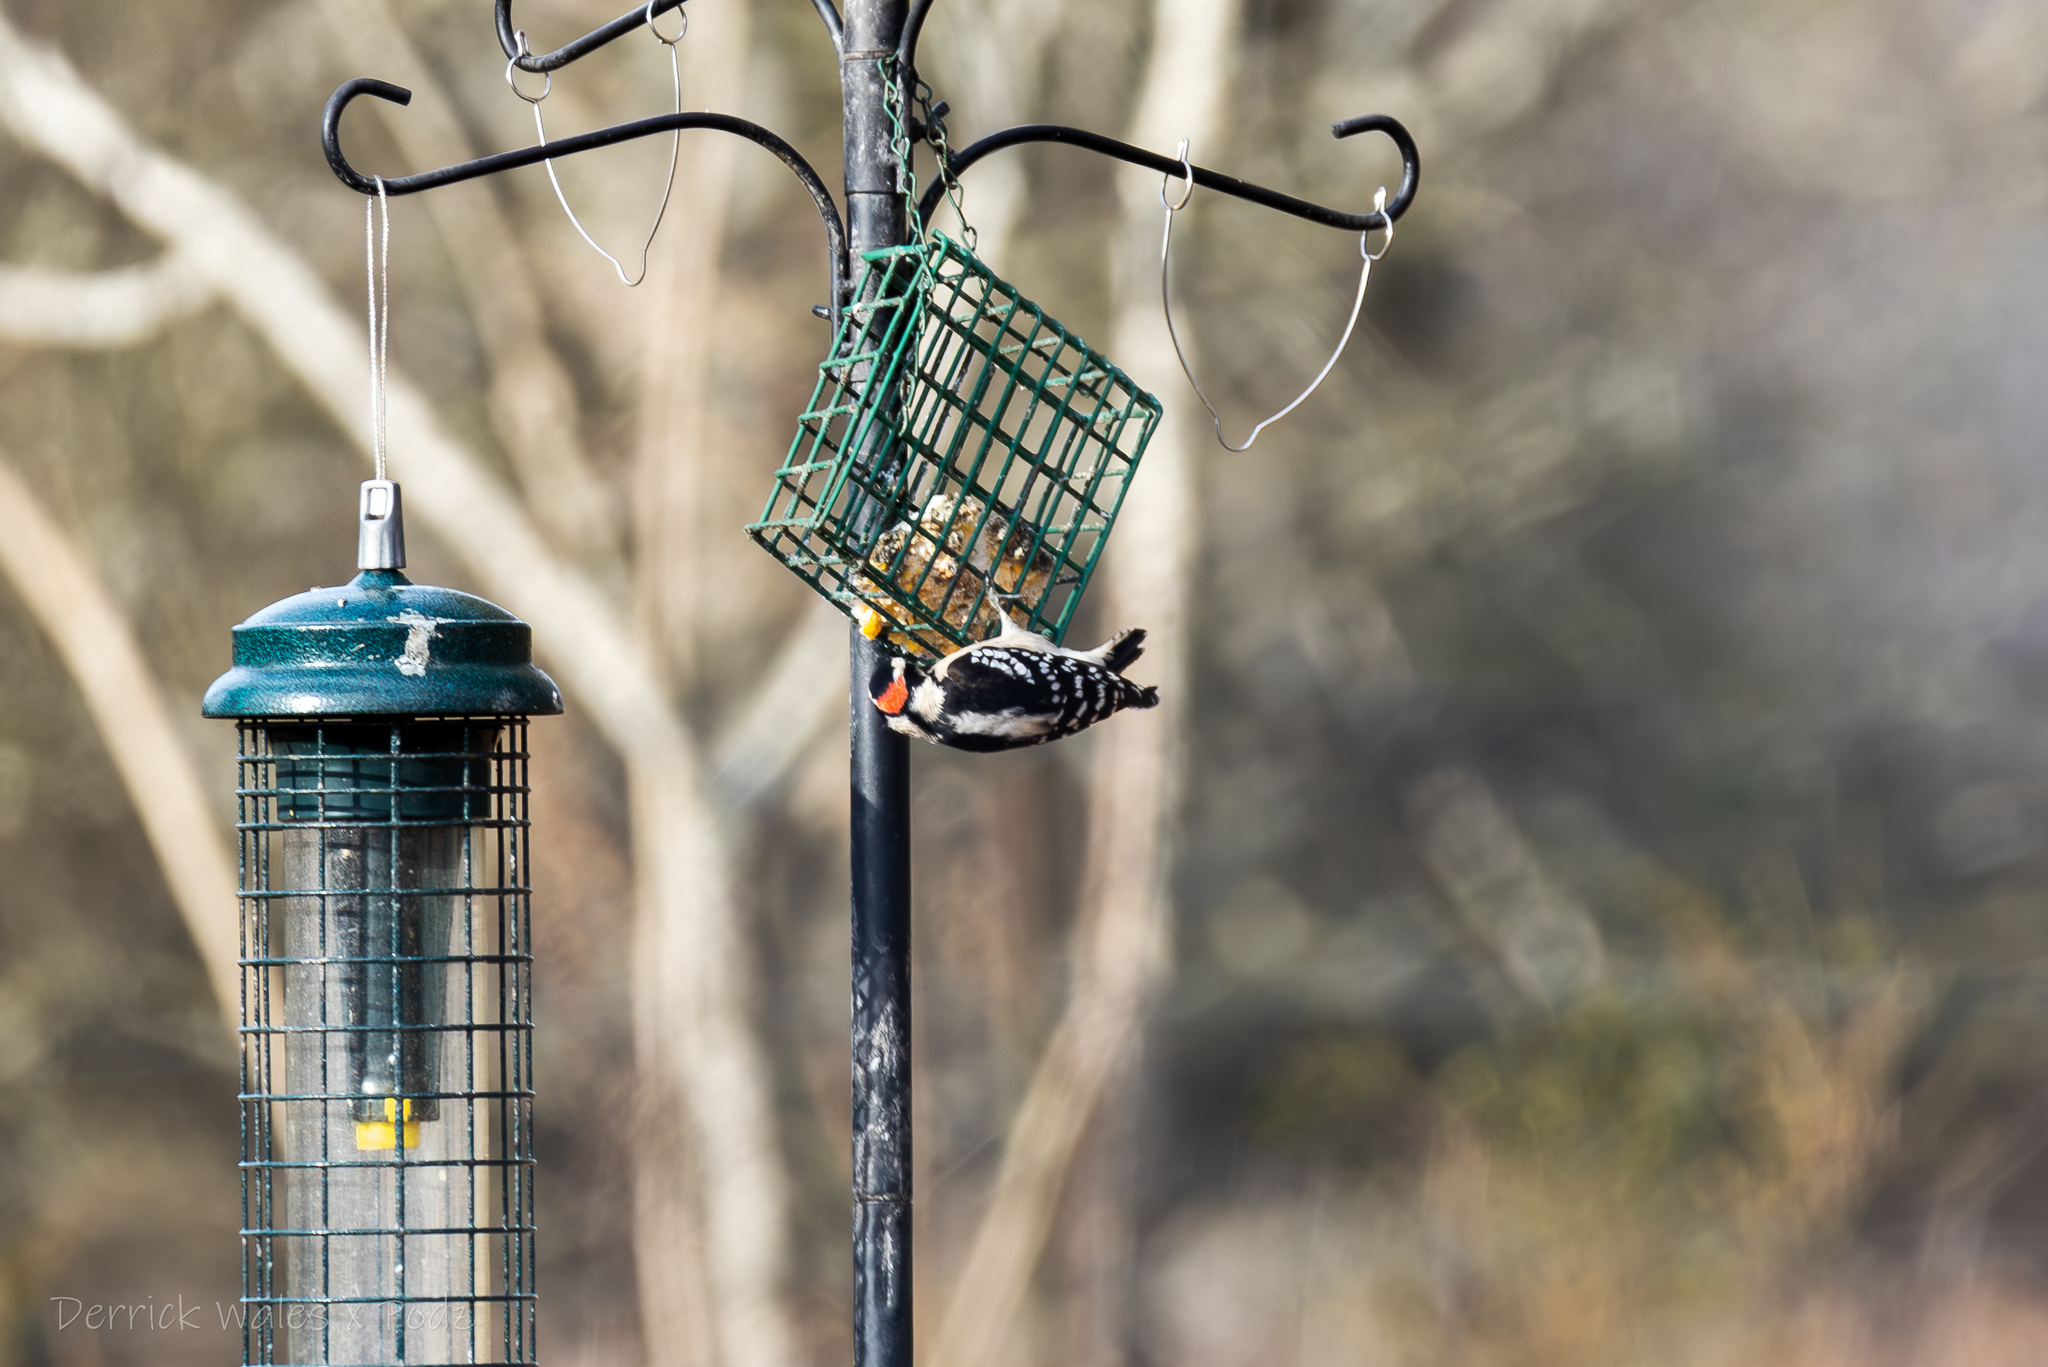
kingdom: Animalia
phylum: Chordata
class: Aves
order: Piciformes
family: Picidae
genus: Dryobates
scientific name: Dryobates pubescens
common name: Downy woodpecker
